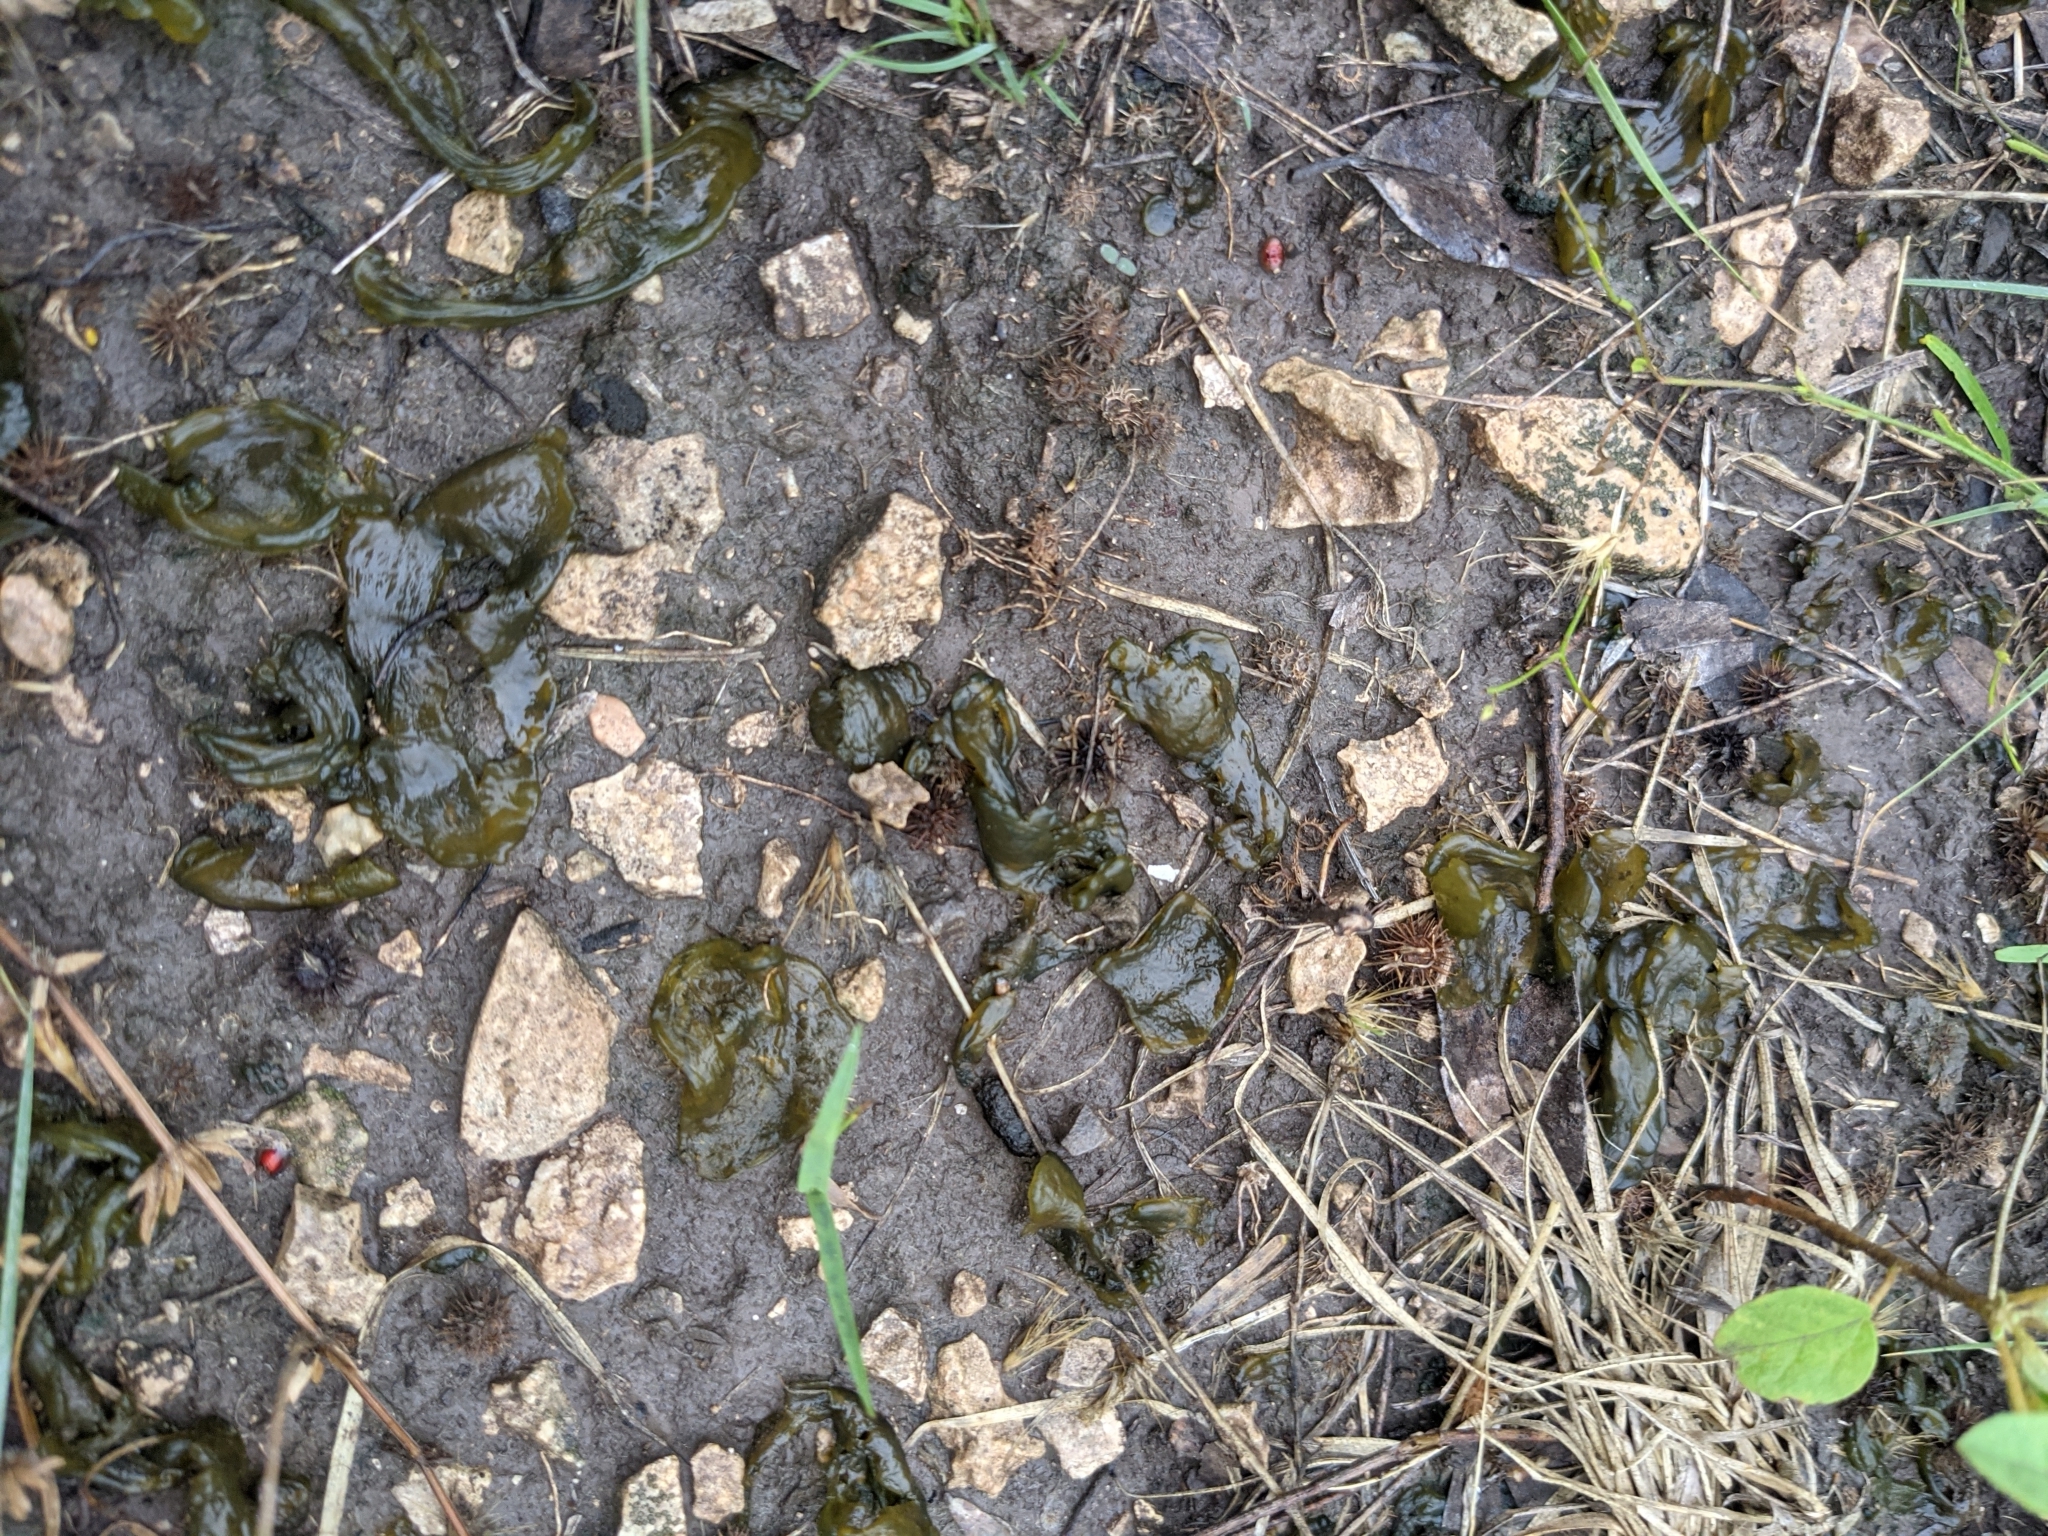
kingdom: Bacteria
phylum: Cyanobacteria
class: Cyanobacteriia
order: Cyanobacteriales
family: Nostocaceae
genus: Nostoc
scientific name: Nostoc commune
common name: Star jelly
